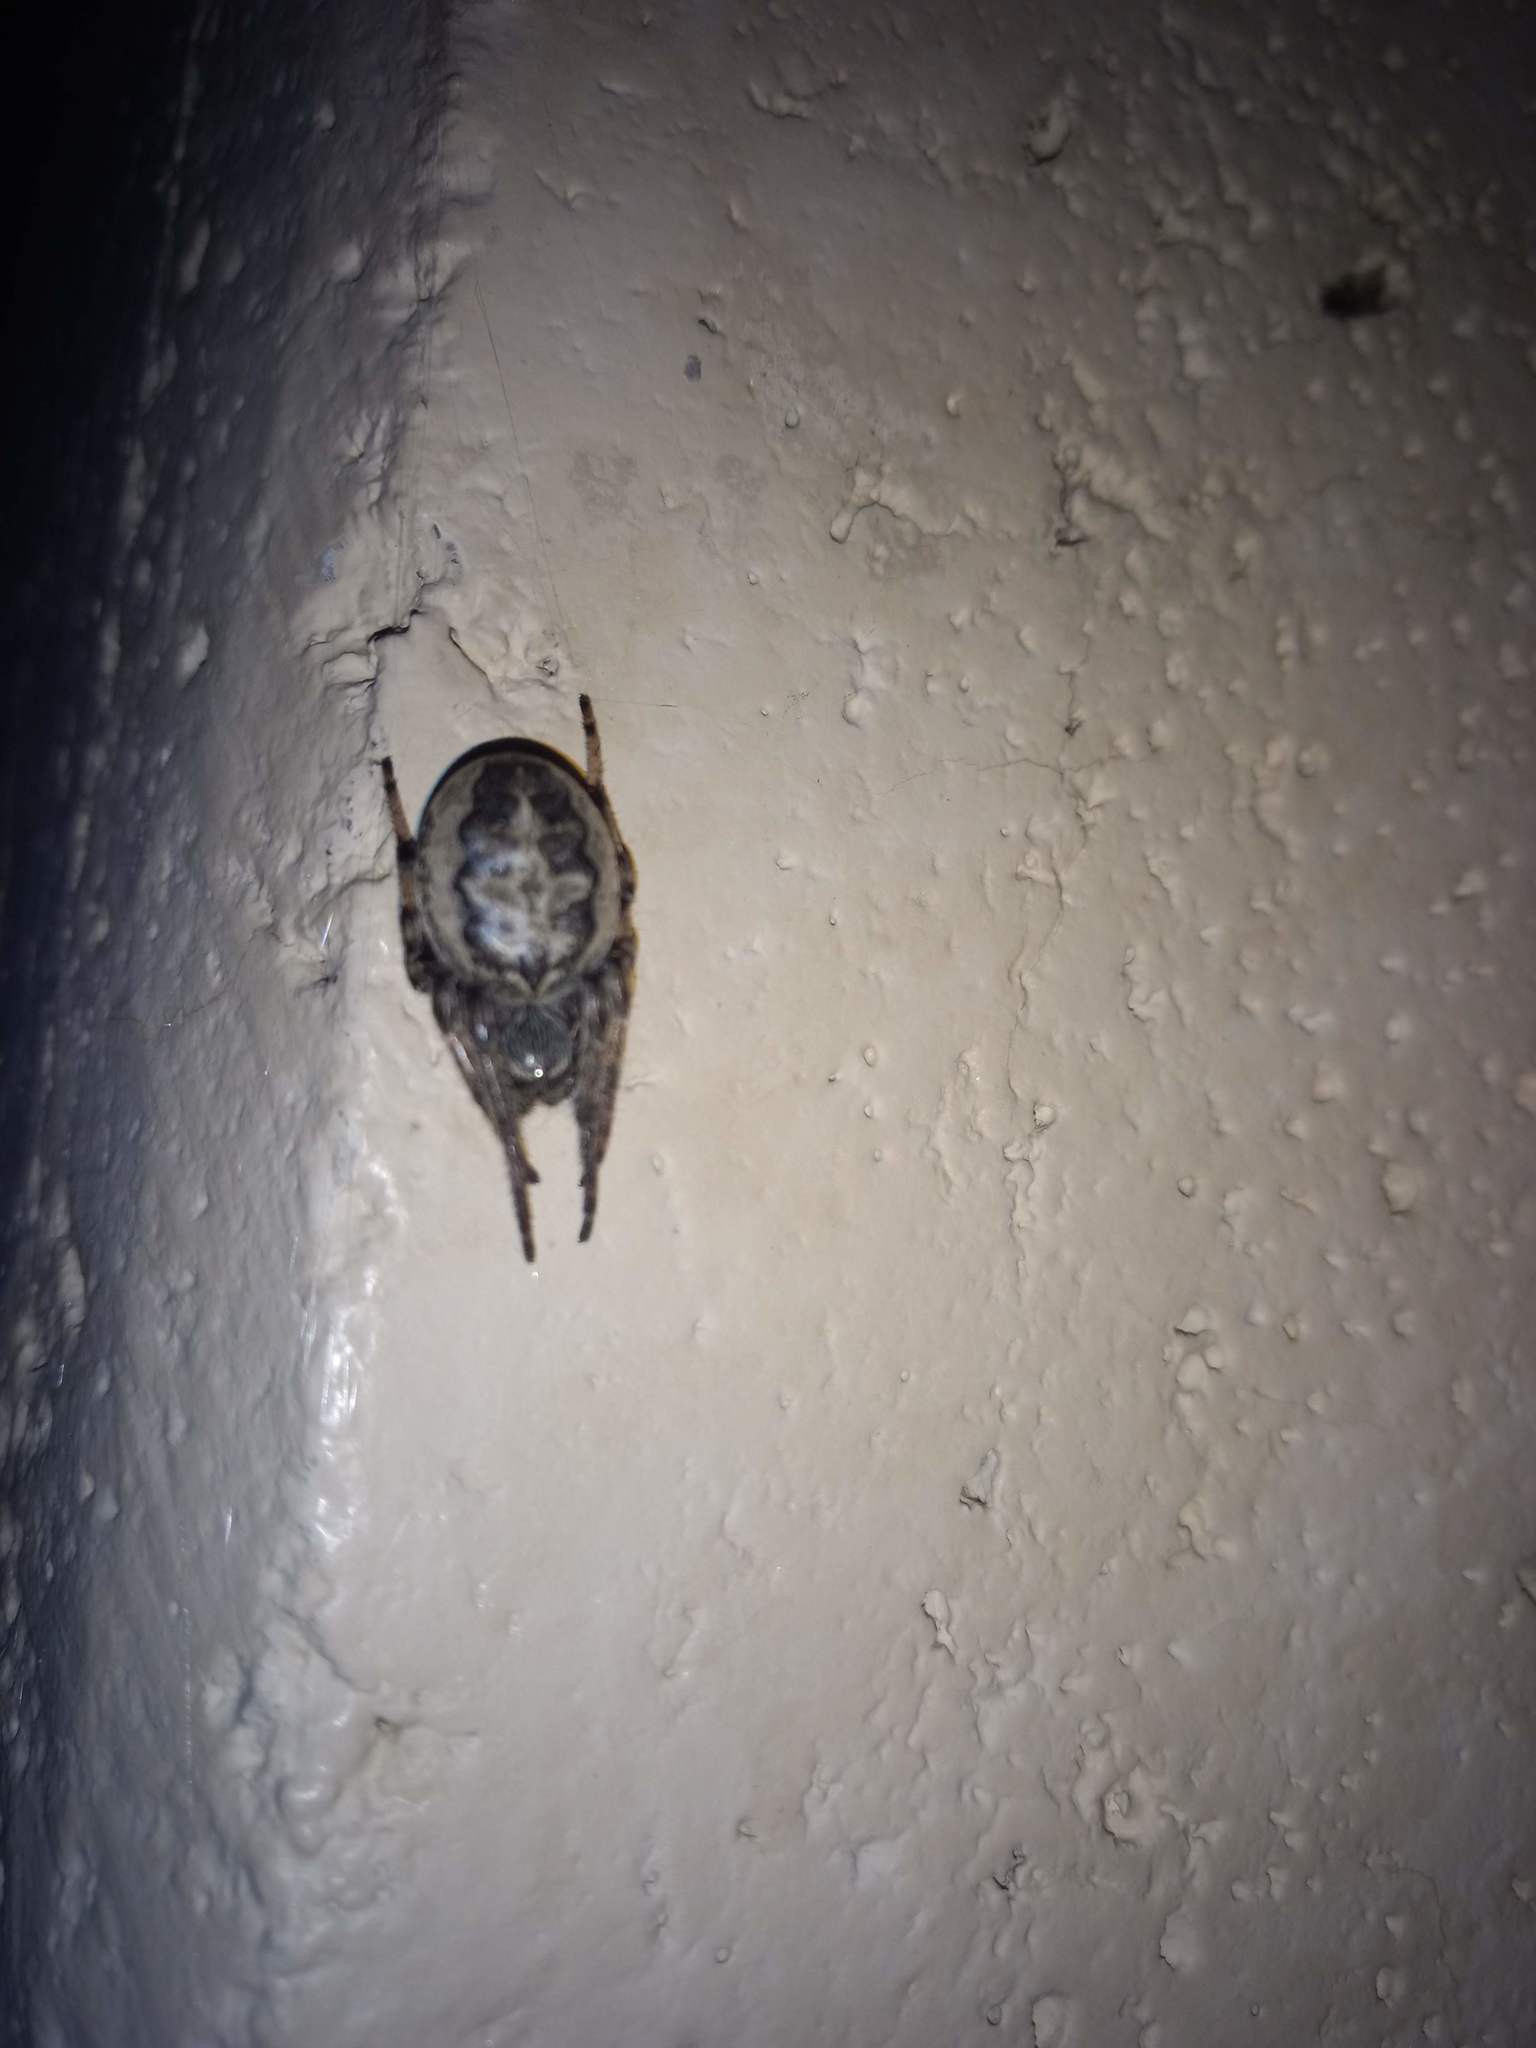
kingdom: Animalia
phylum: Arthropoda
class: Arachnida
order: Araneae
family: Araneidae
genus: Larinioides
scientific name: Larinioides cornutus
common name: Furrow orbweaver
